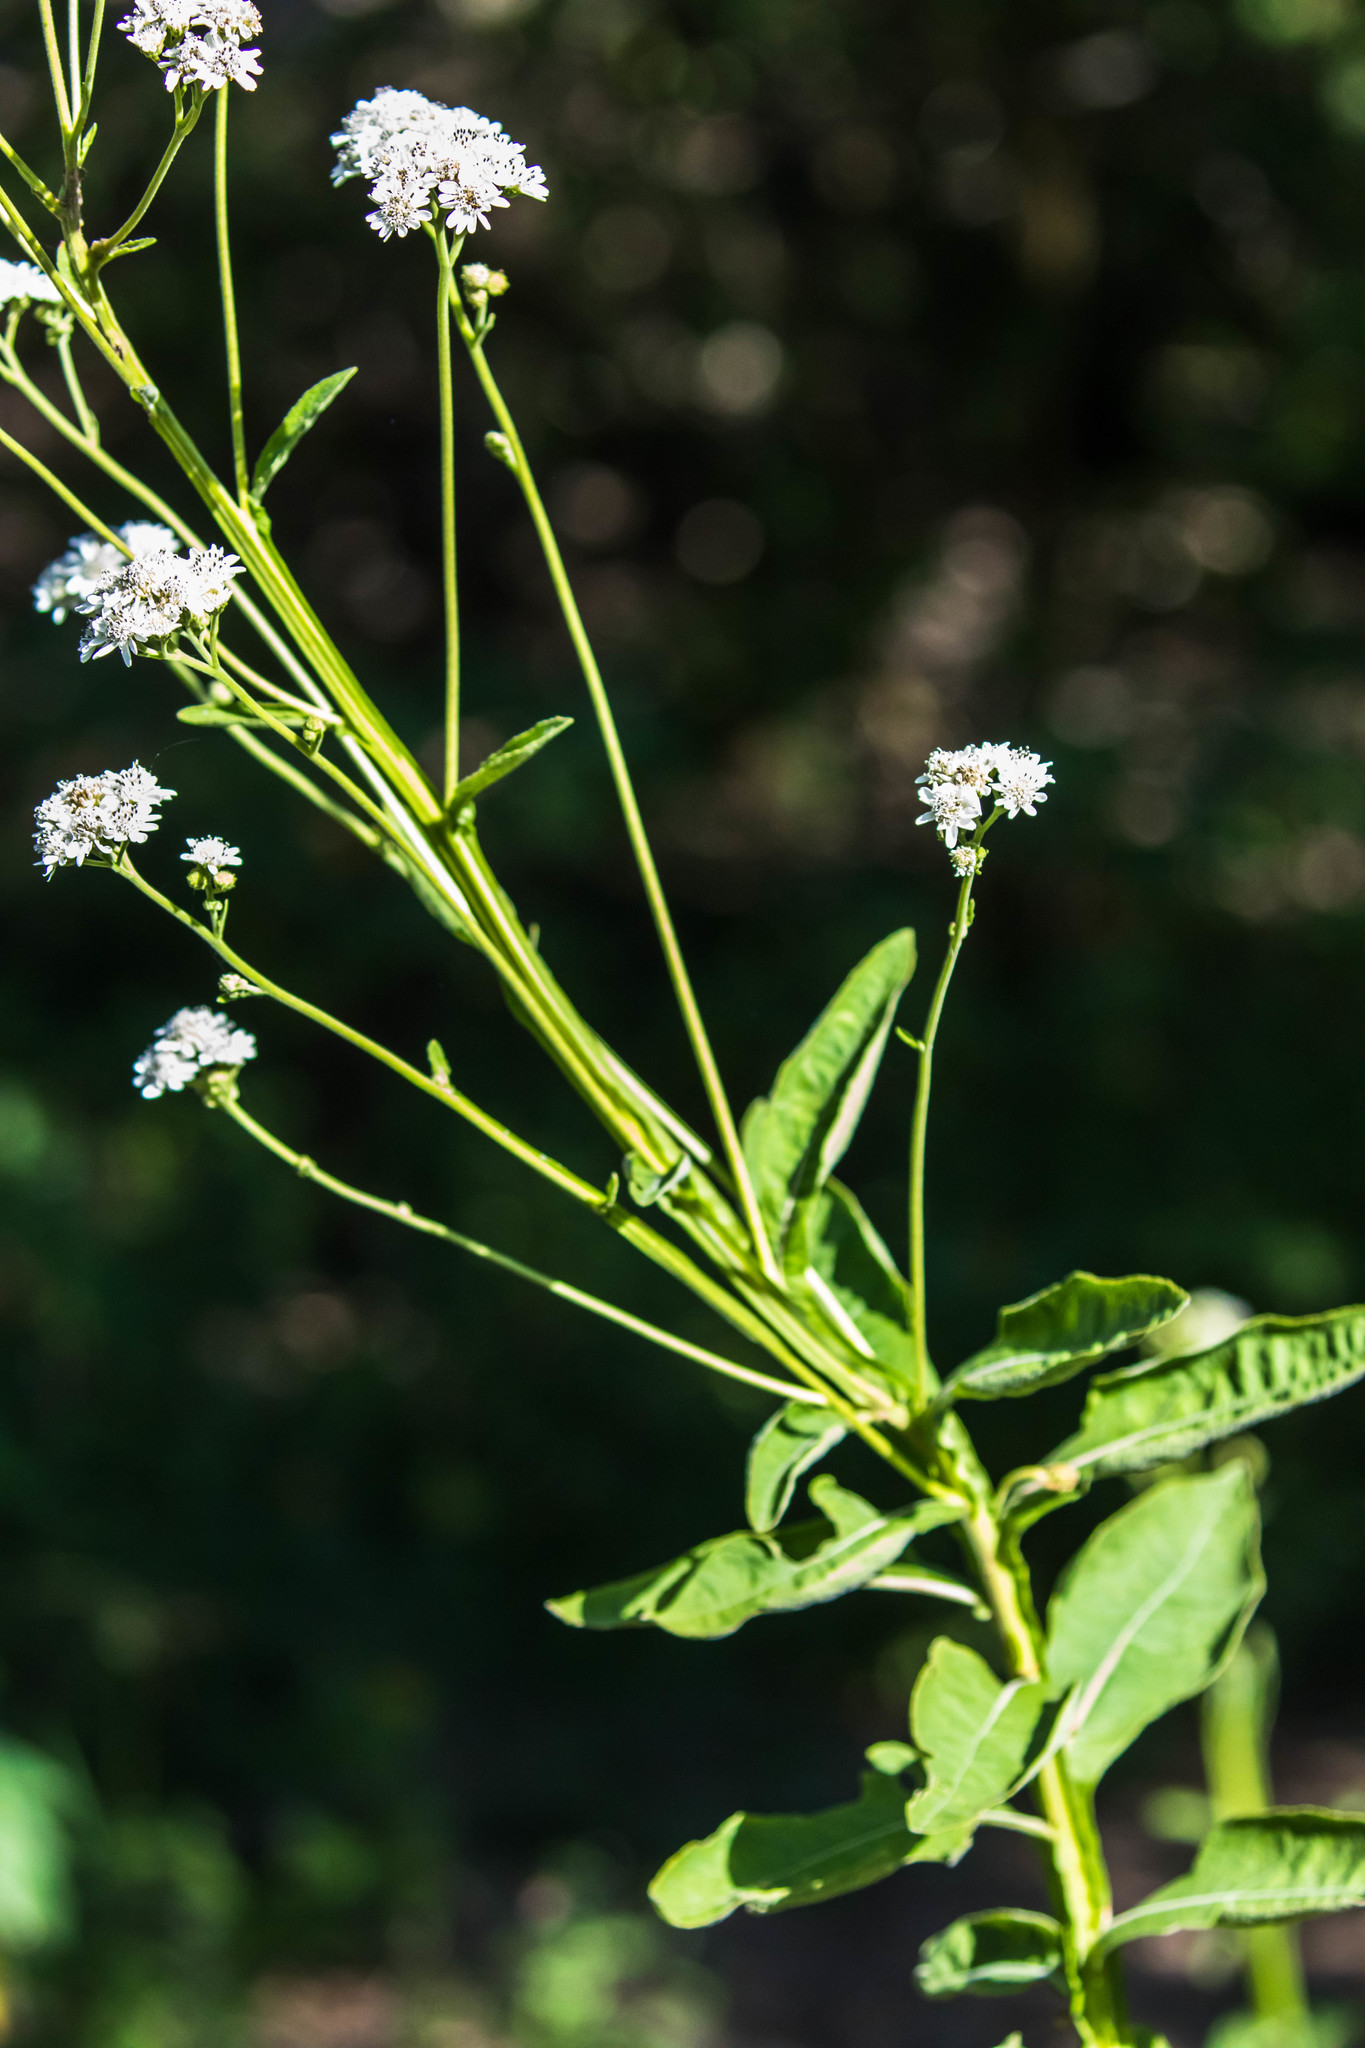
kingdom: Plantae
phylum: Tracheophyta
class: Magnoliopsida
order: Asterales
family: Asteraceae
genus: Verbesina
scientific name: Verbesina microptera
